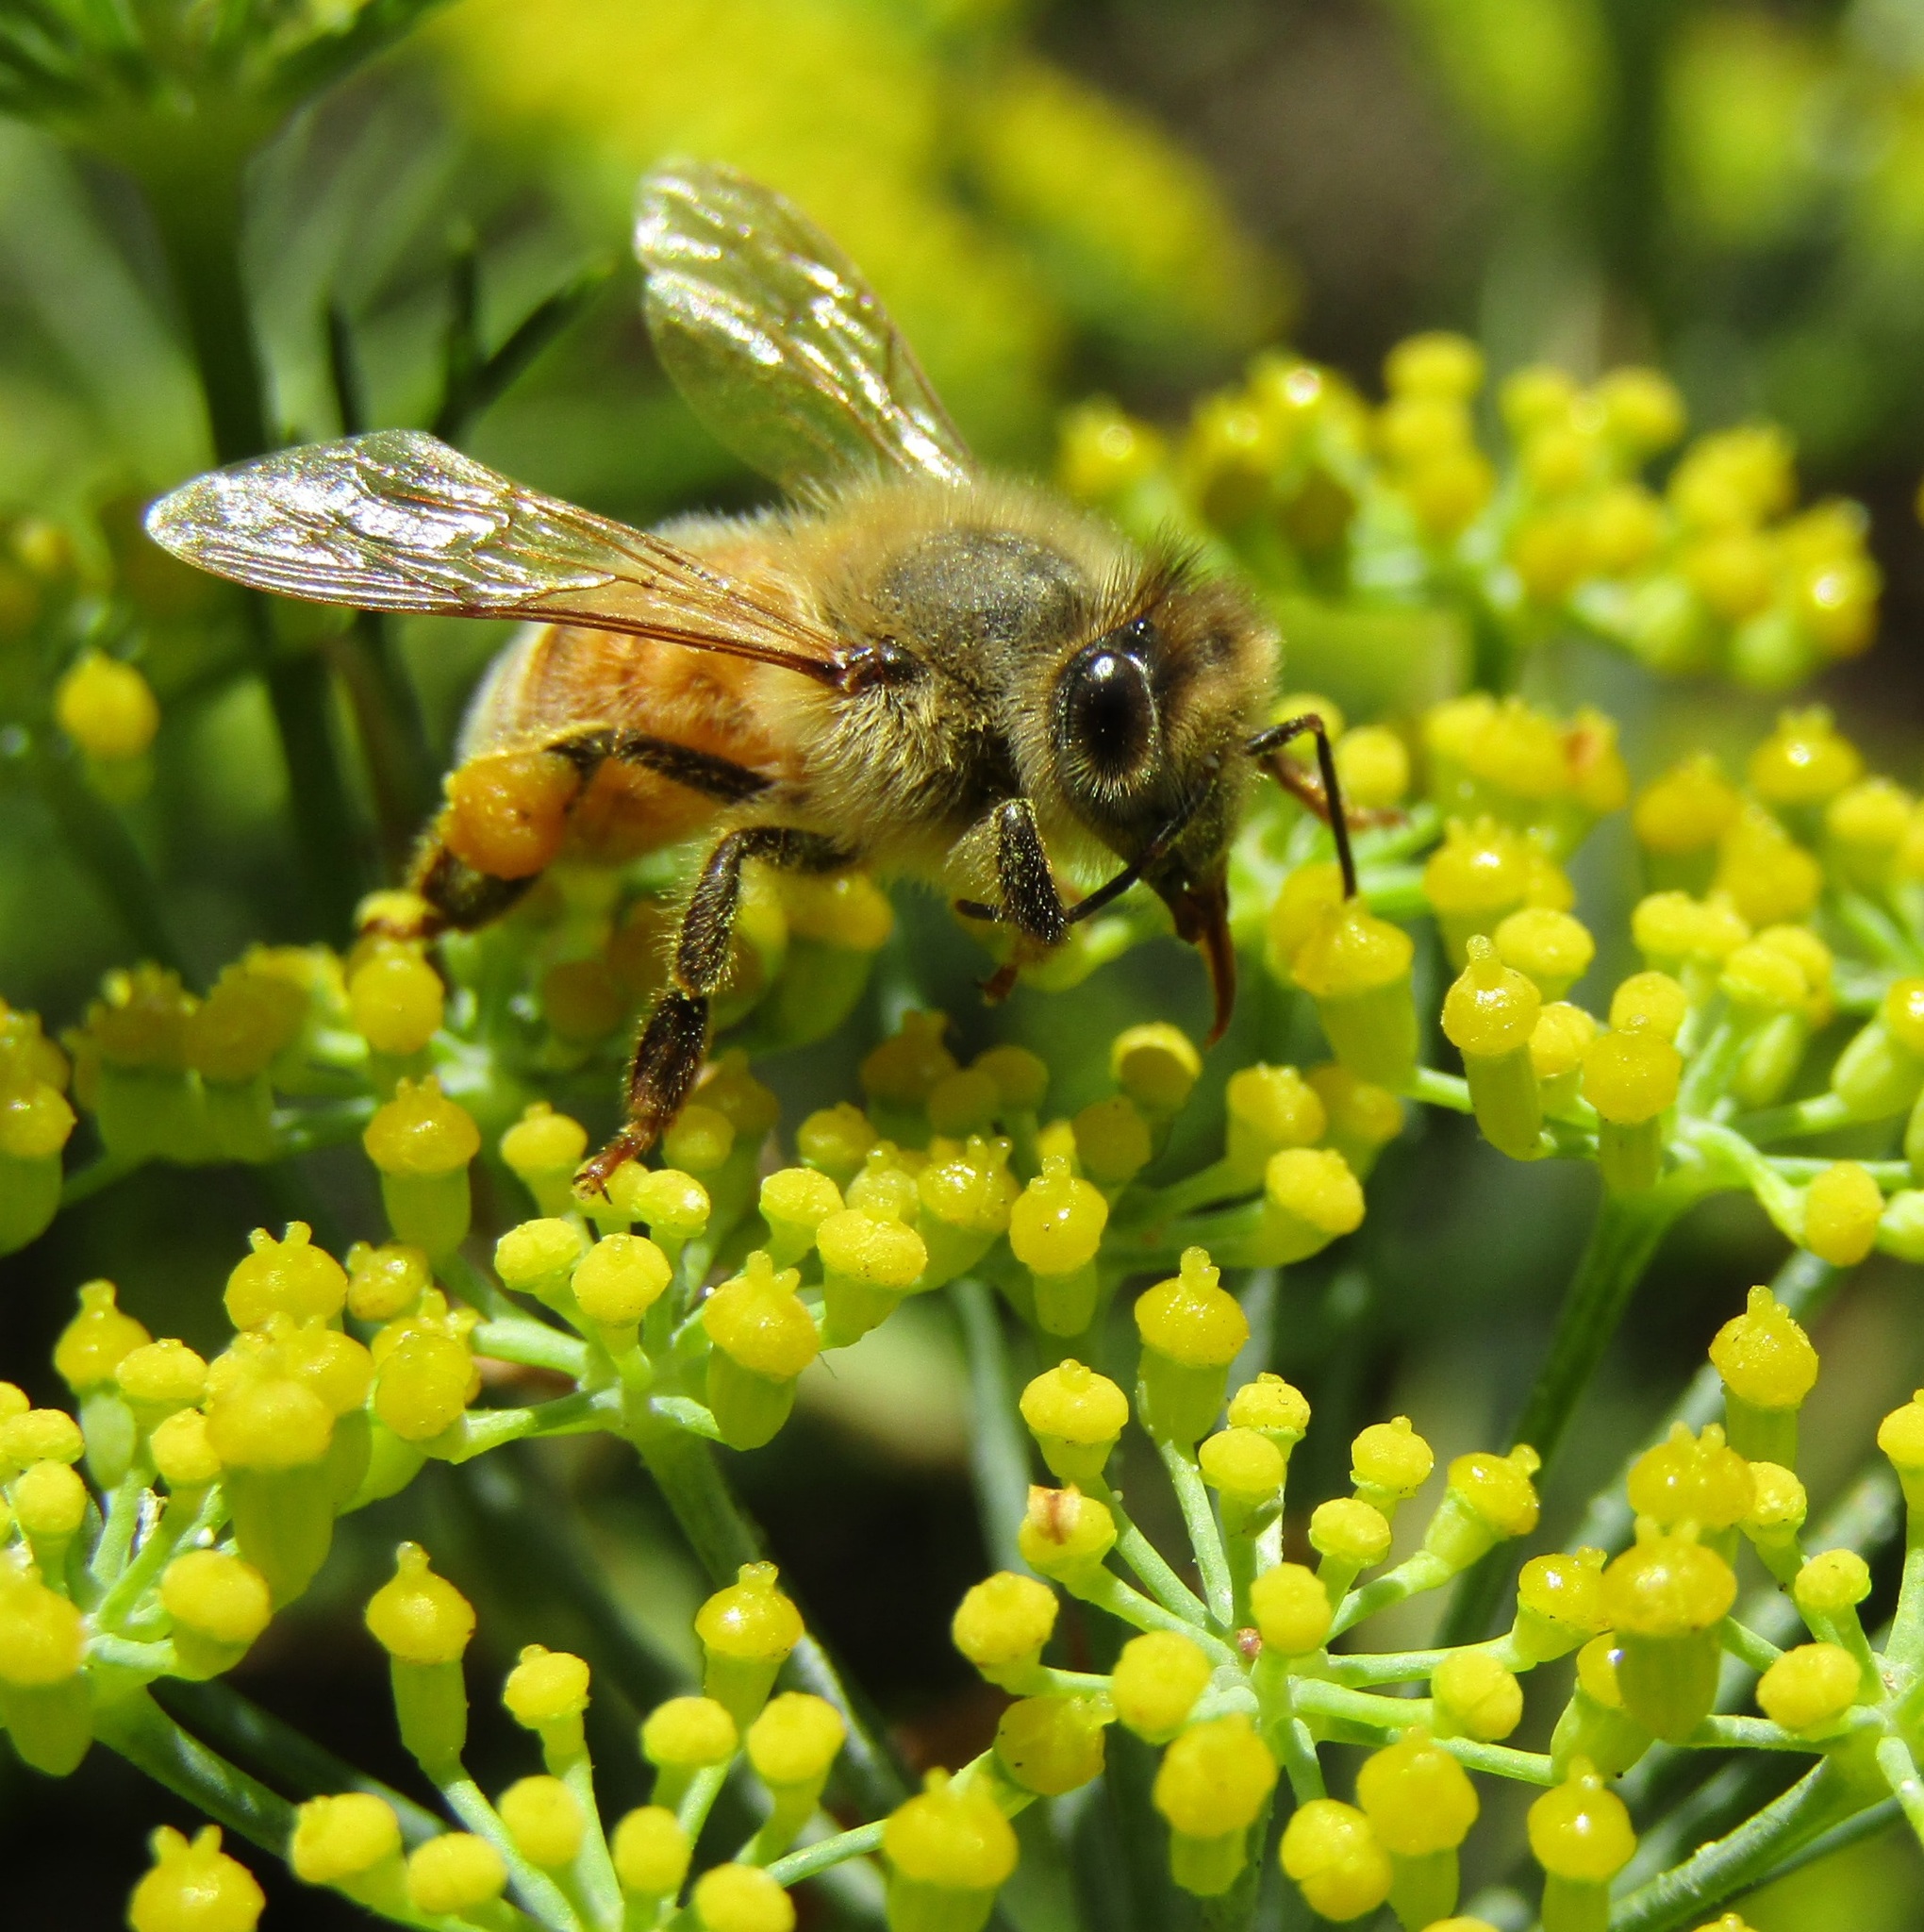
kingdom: Animalia
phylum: Arthropoda
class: Insecta
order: Hymenoptera
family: Apidae
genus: Apis
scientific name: Apis mellifera
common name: Honey bee
